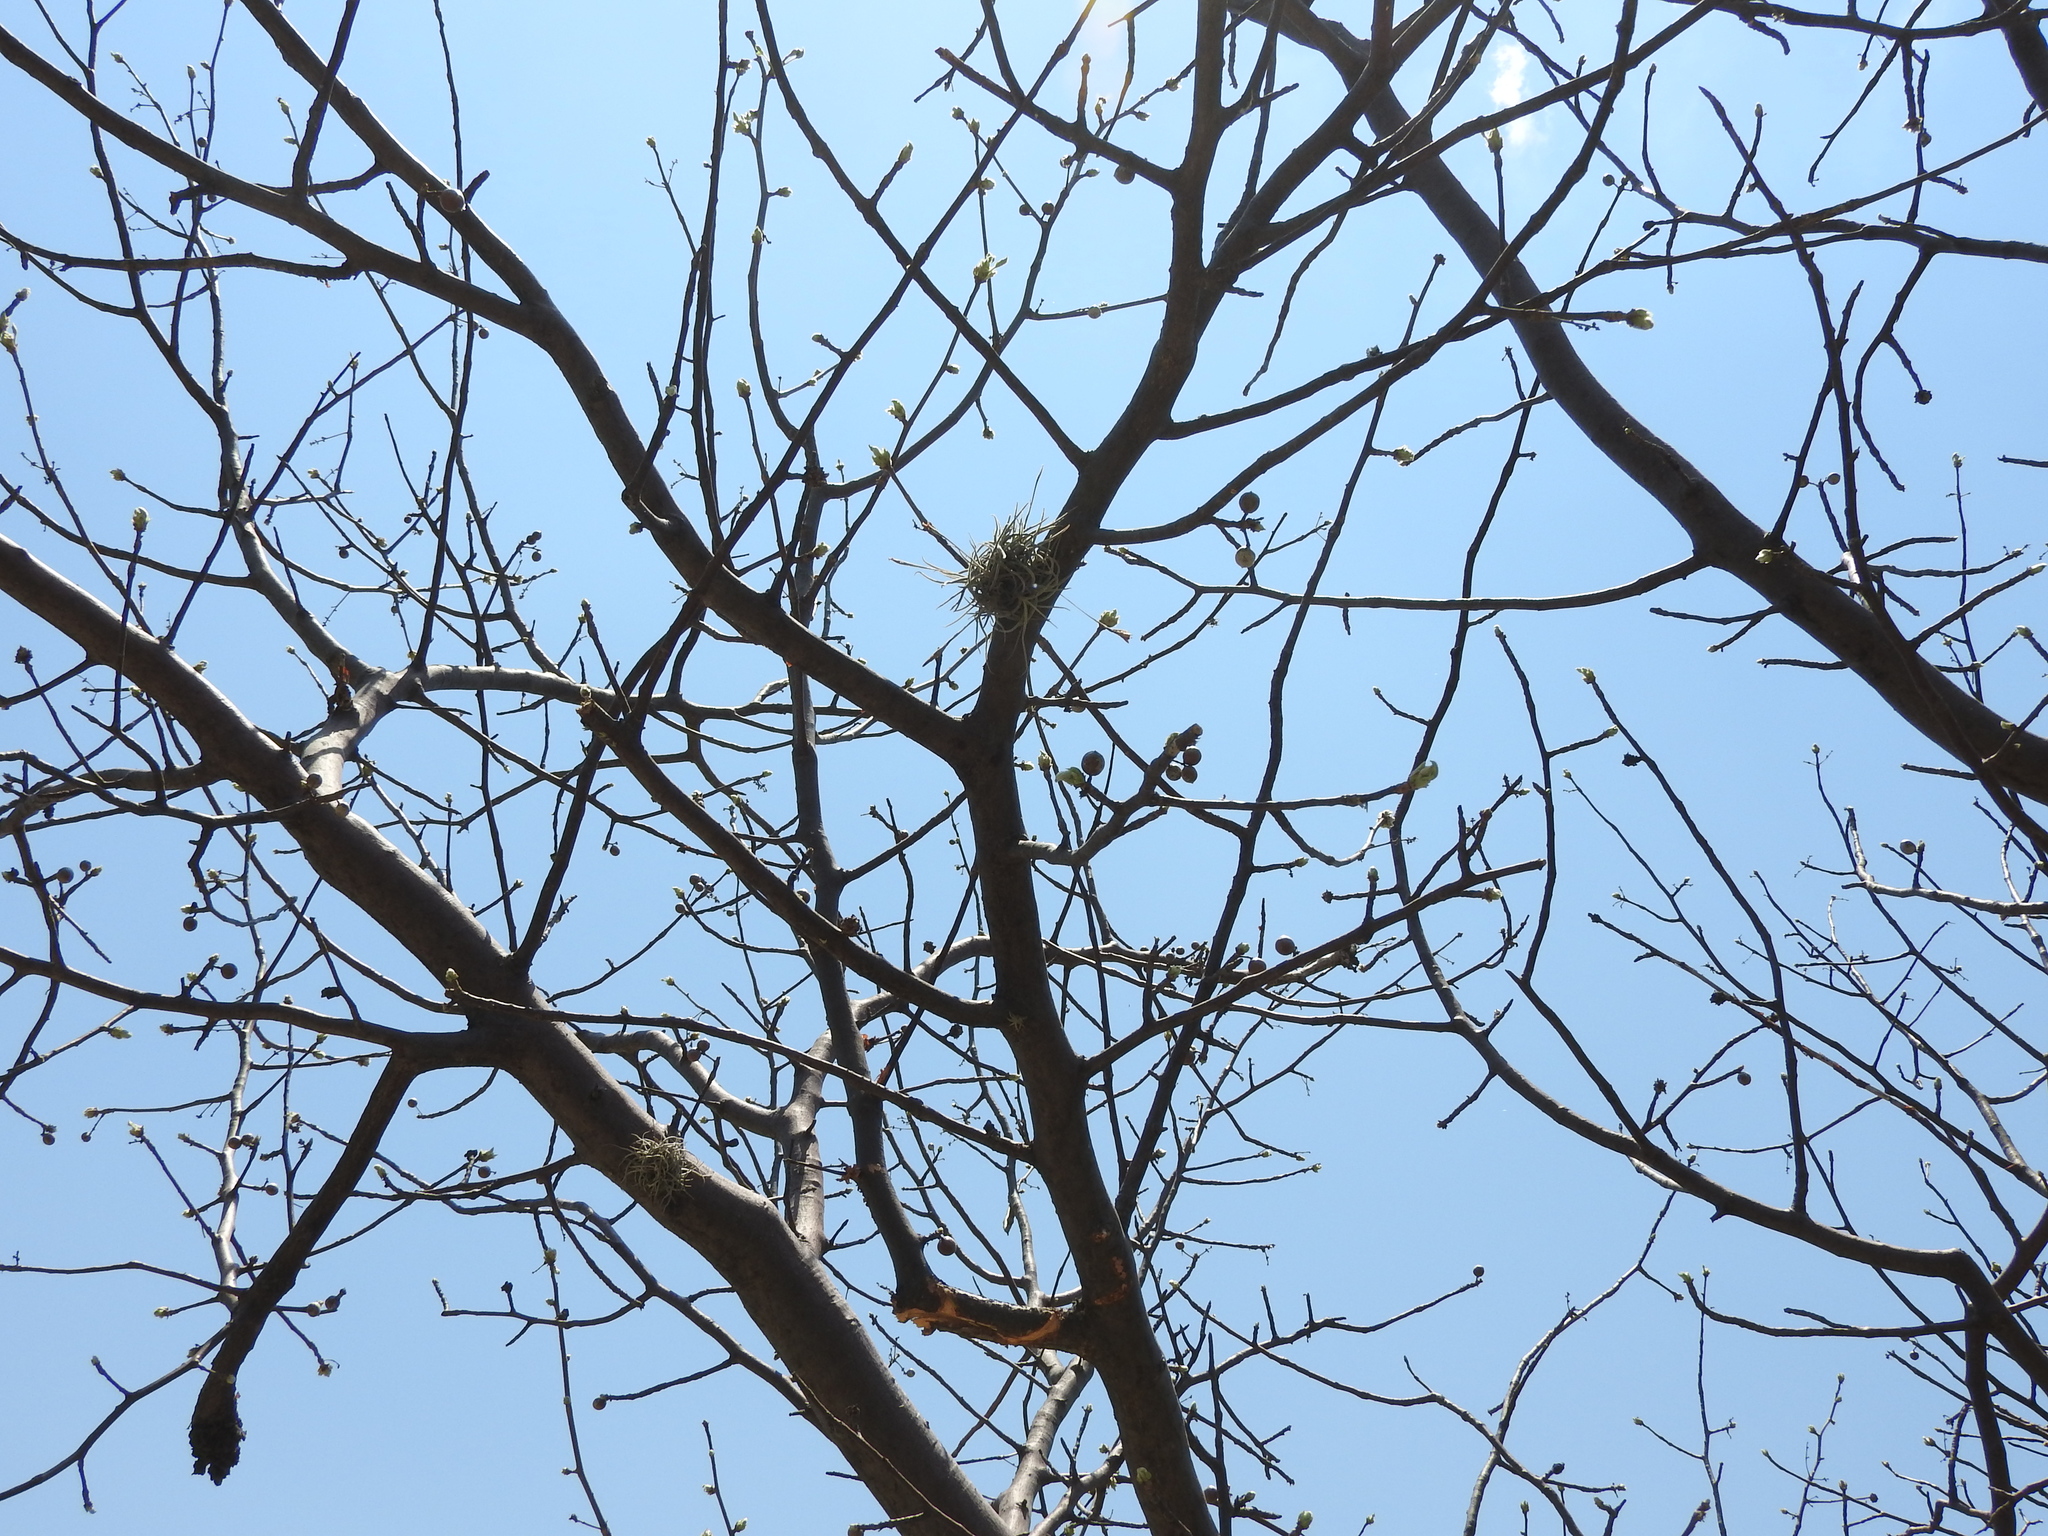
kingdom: Plantae
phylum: Tracheophyta
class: Magnoliopsida
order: Sapindales
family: Burseraceae
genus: Bursera
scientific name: Bursera palmeri
